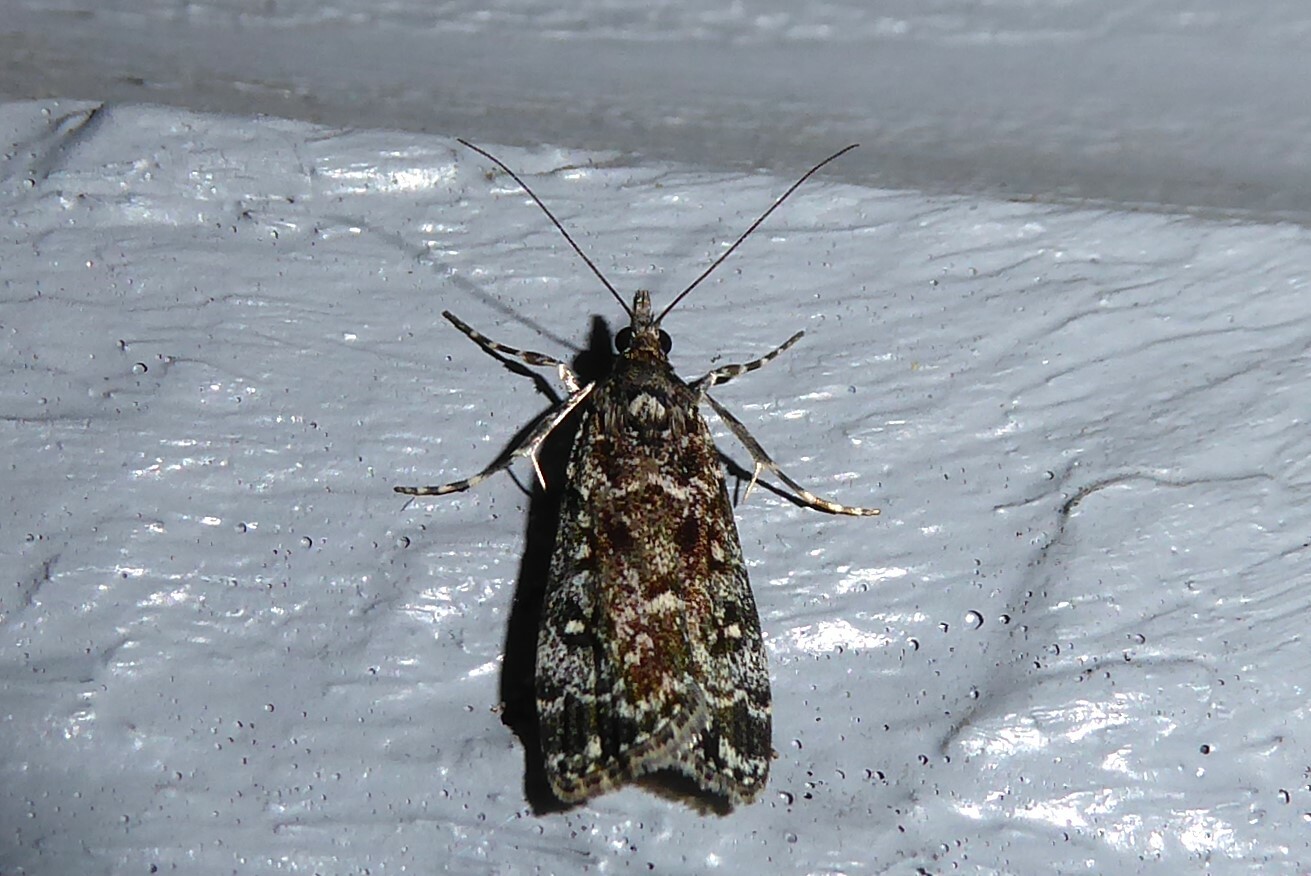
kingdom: Animalia
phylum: Arthropoda
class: Insecta
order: Lepidoptera
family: Crambidae
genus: Eudonia
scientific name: Eudonia philerga
